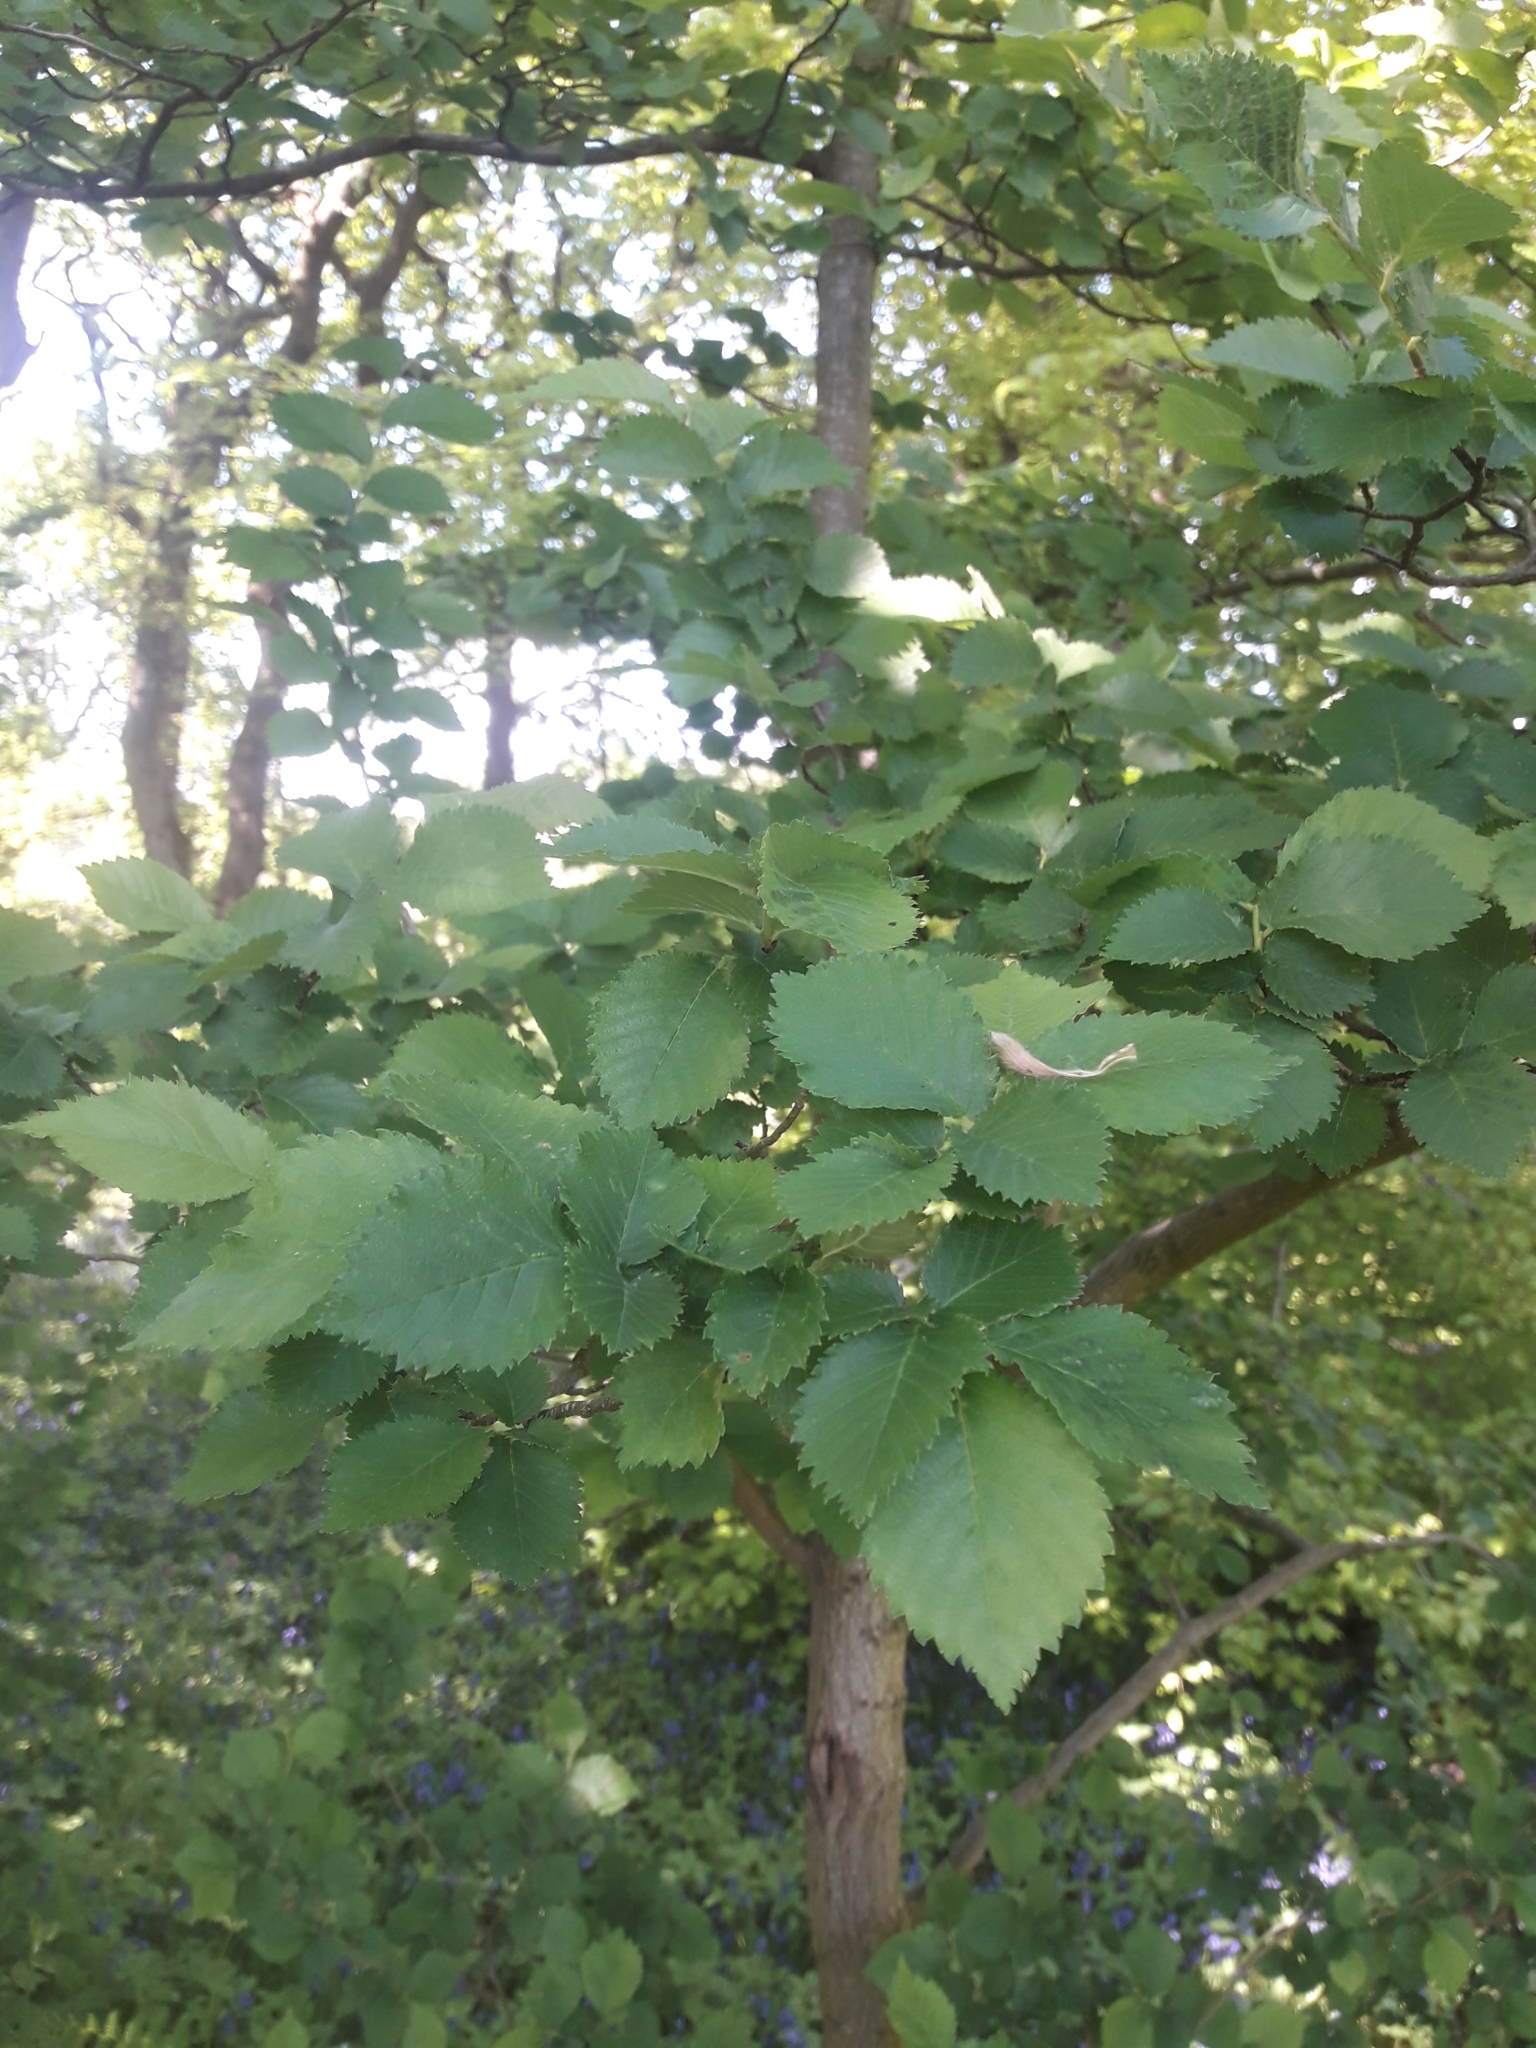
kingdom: Plantae
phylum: Tracheophyta
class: Magnoliopsida
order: Rosales
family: Ulmaceae
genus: Ulmus
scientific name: Ulmus minor
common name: Small-leaved elm
